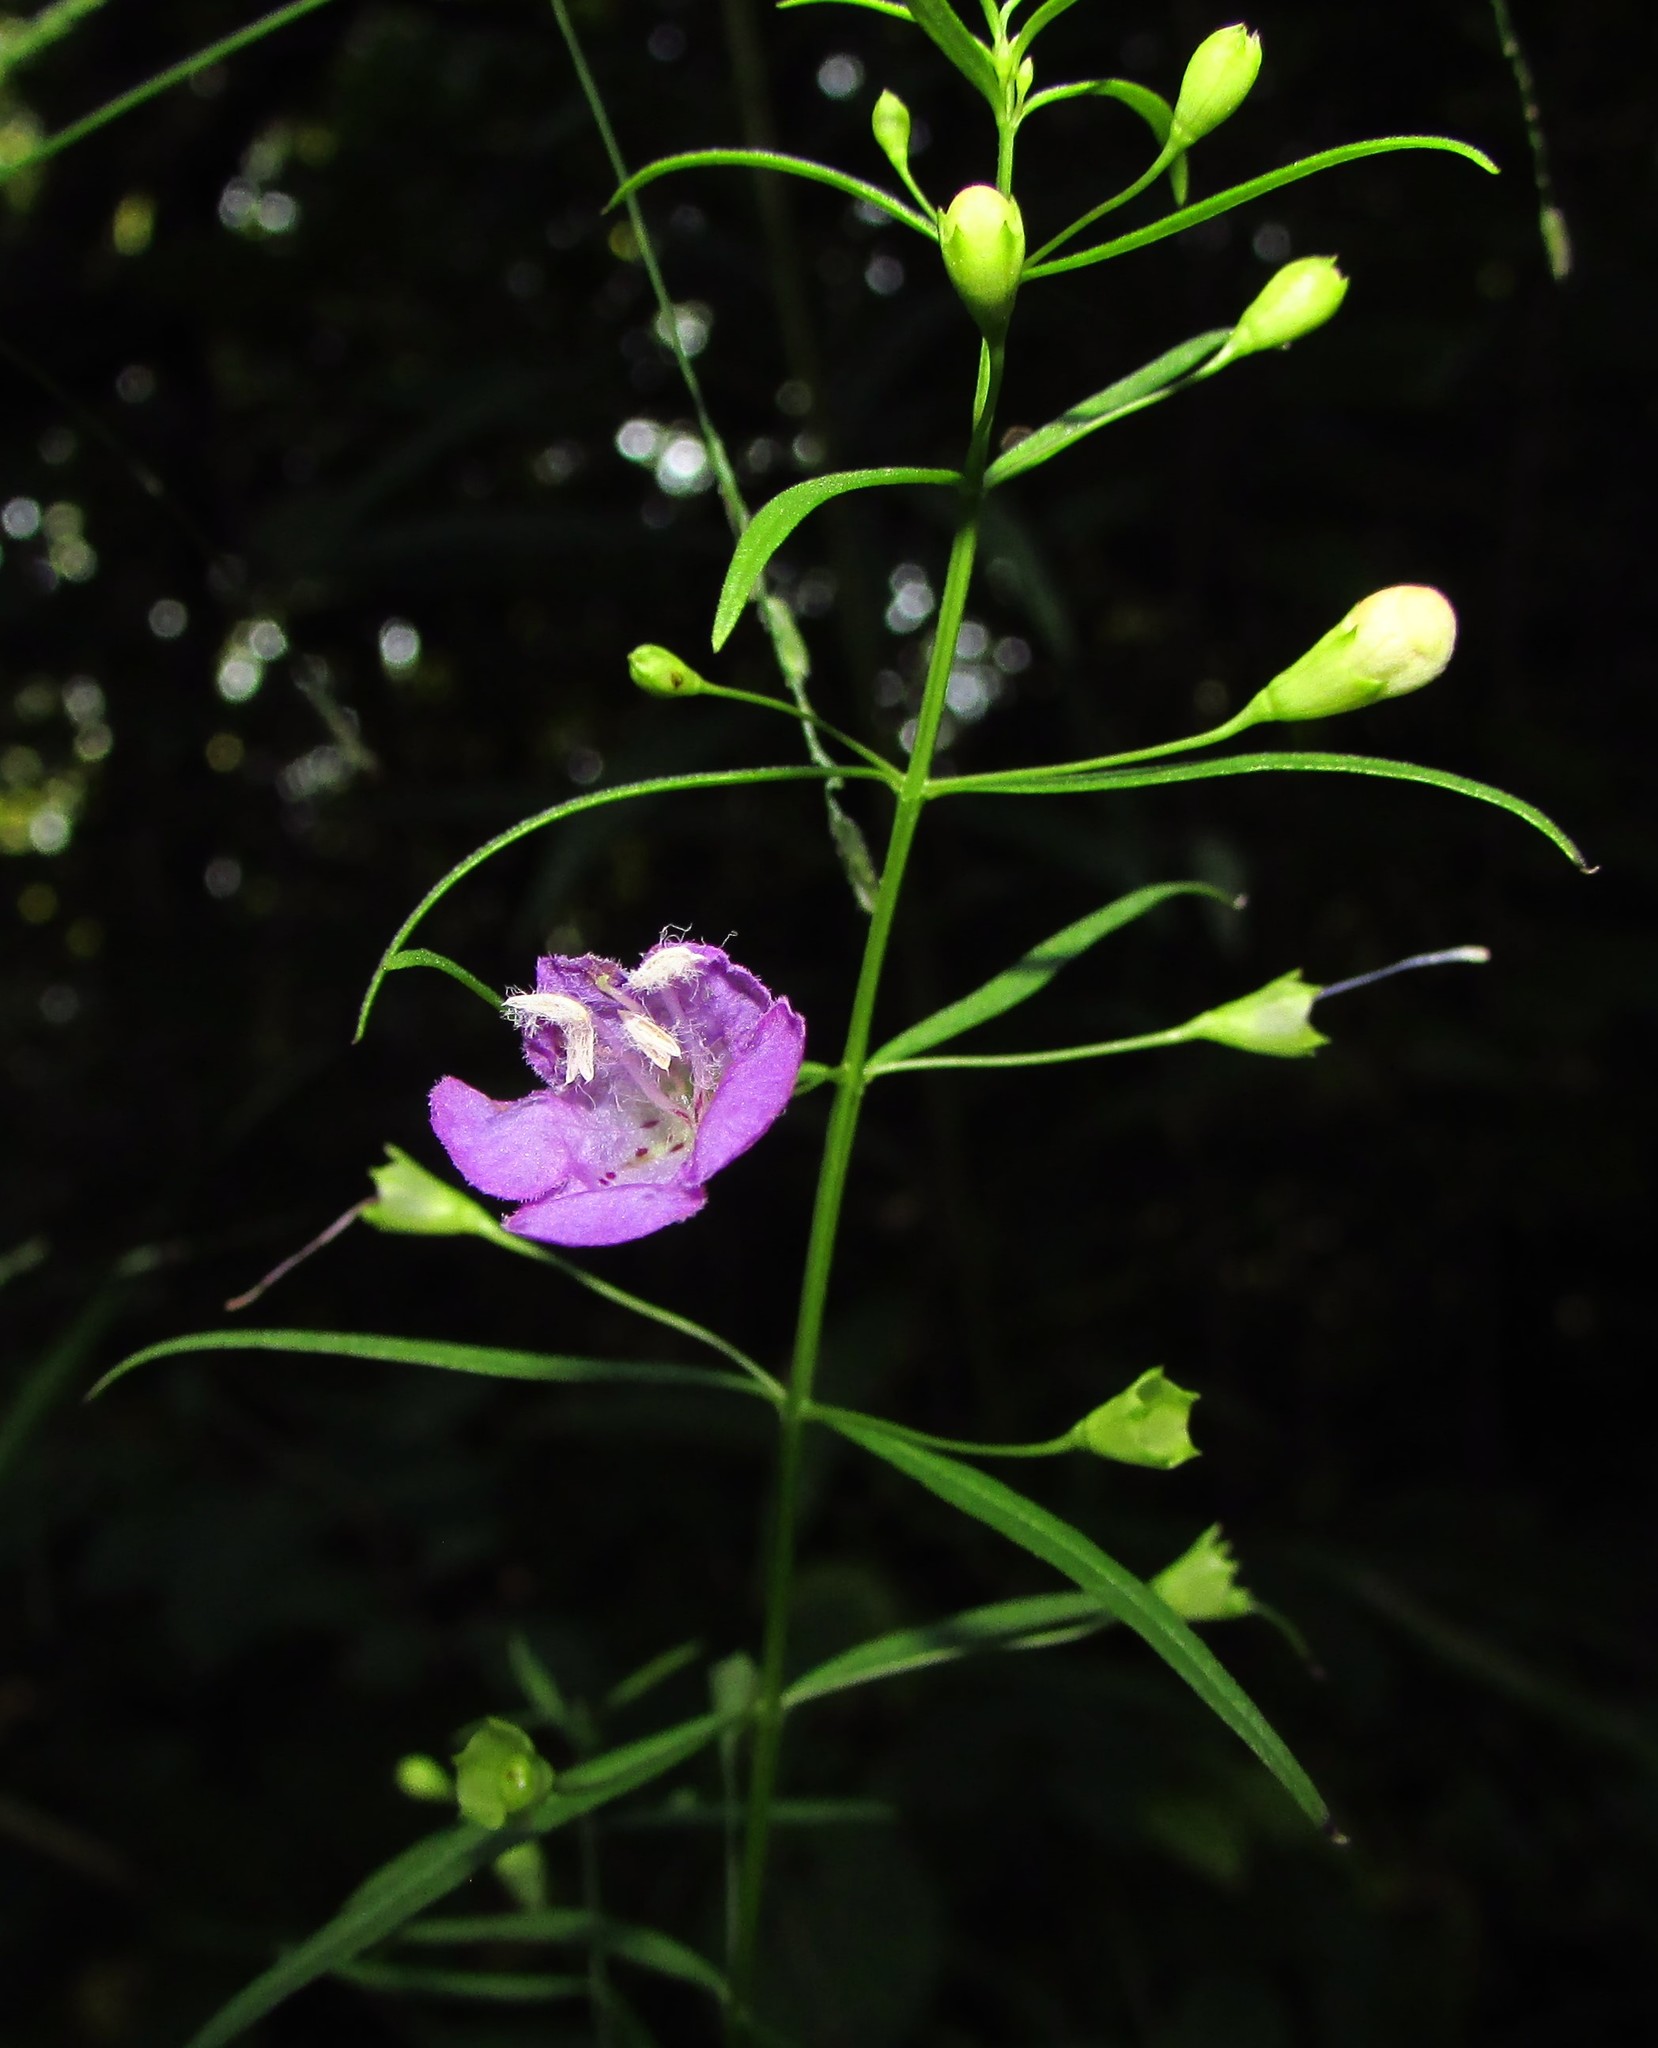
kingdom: Plantae
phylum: Tracheophyta
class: Magnoliopsida
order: Lamiales
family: Orobanchaceae
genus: Agalinis
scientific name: Agalinis tenuifolia
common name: Slender agalinis
